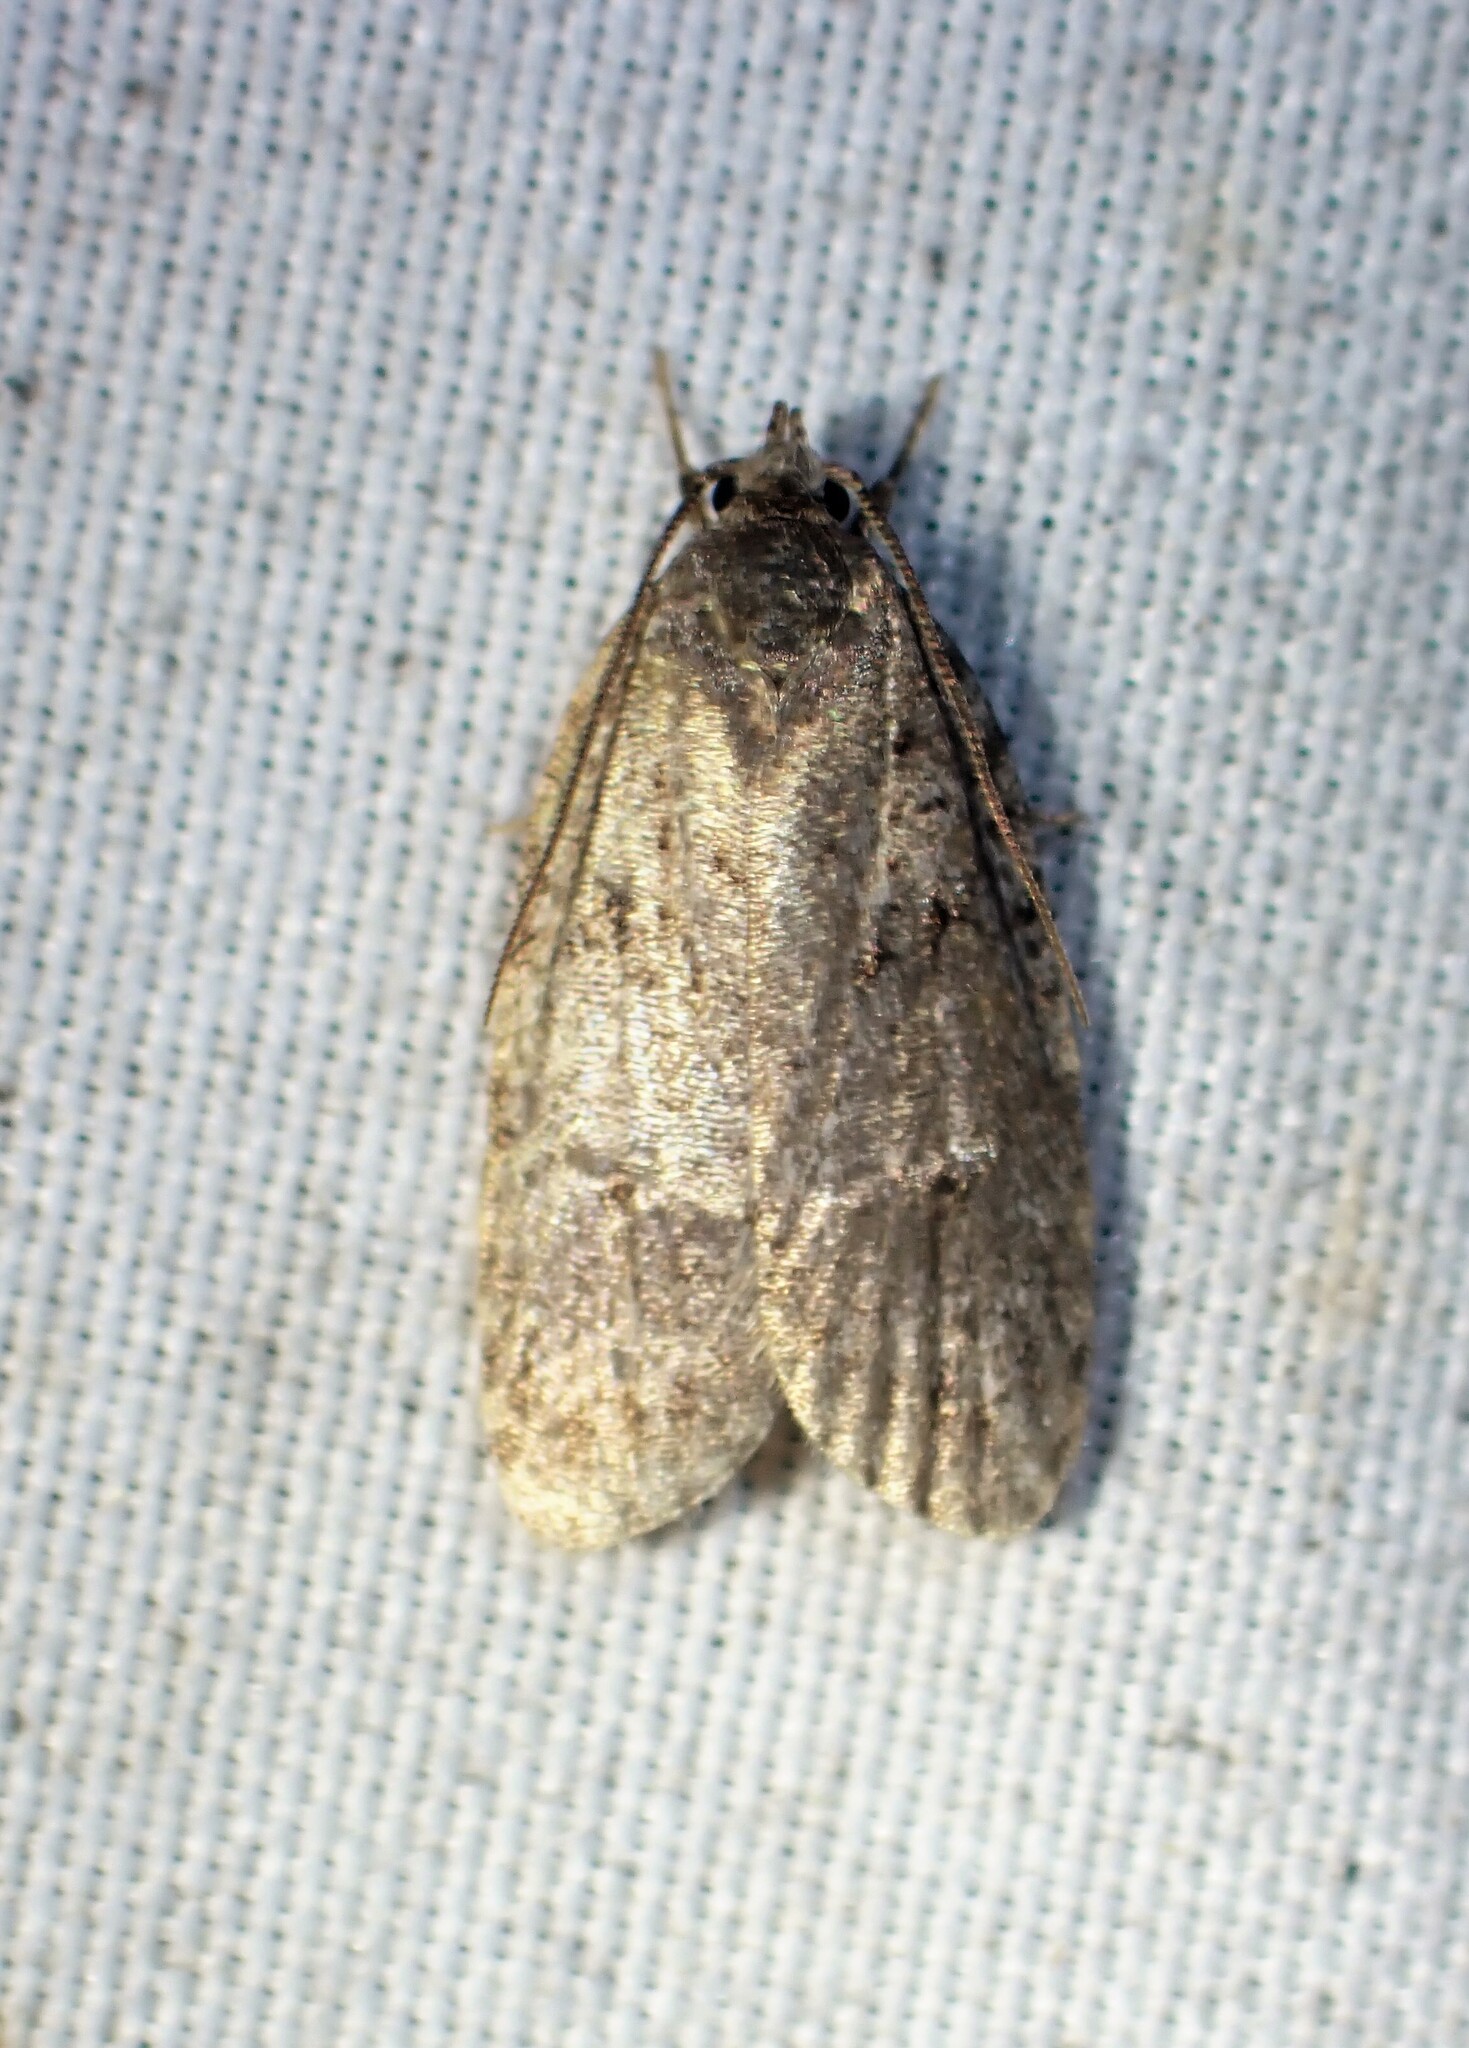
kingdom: Animalia
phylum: Arthropoda
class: Insecta
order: Lepidoptera
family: Depressariidae
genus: Bibarrambla
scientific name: Bibarrambla allenella
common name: Bog bibarrambla moth
